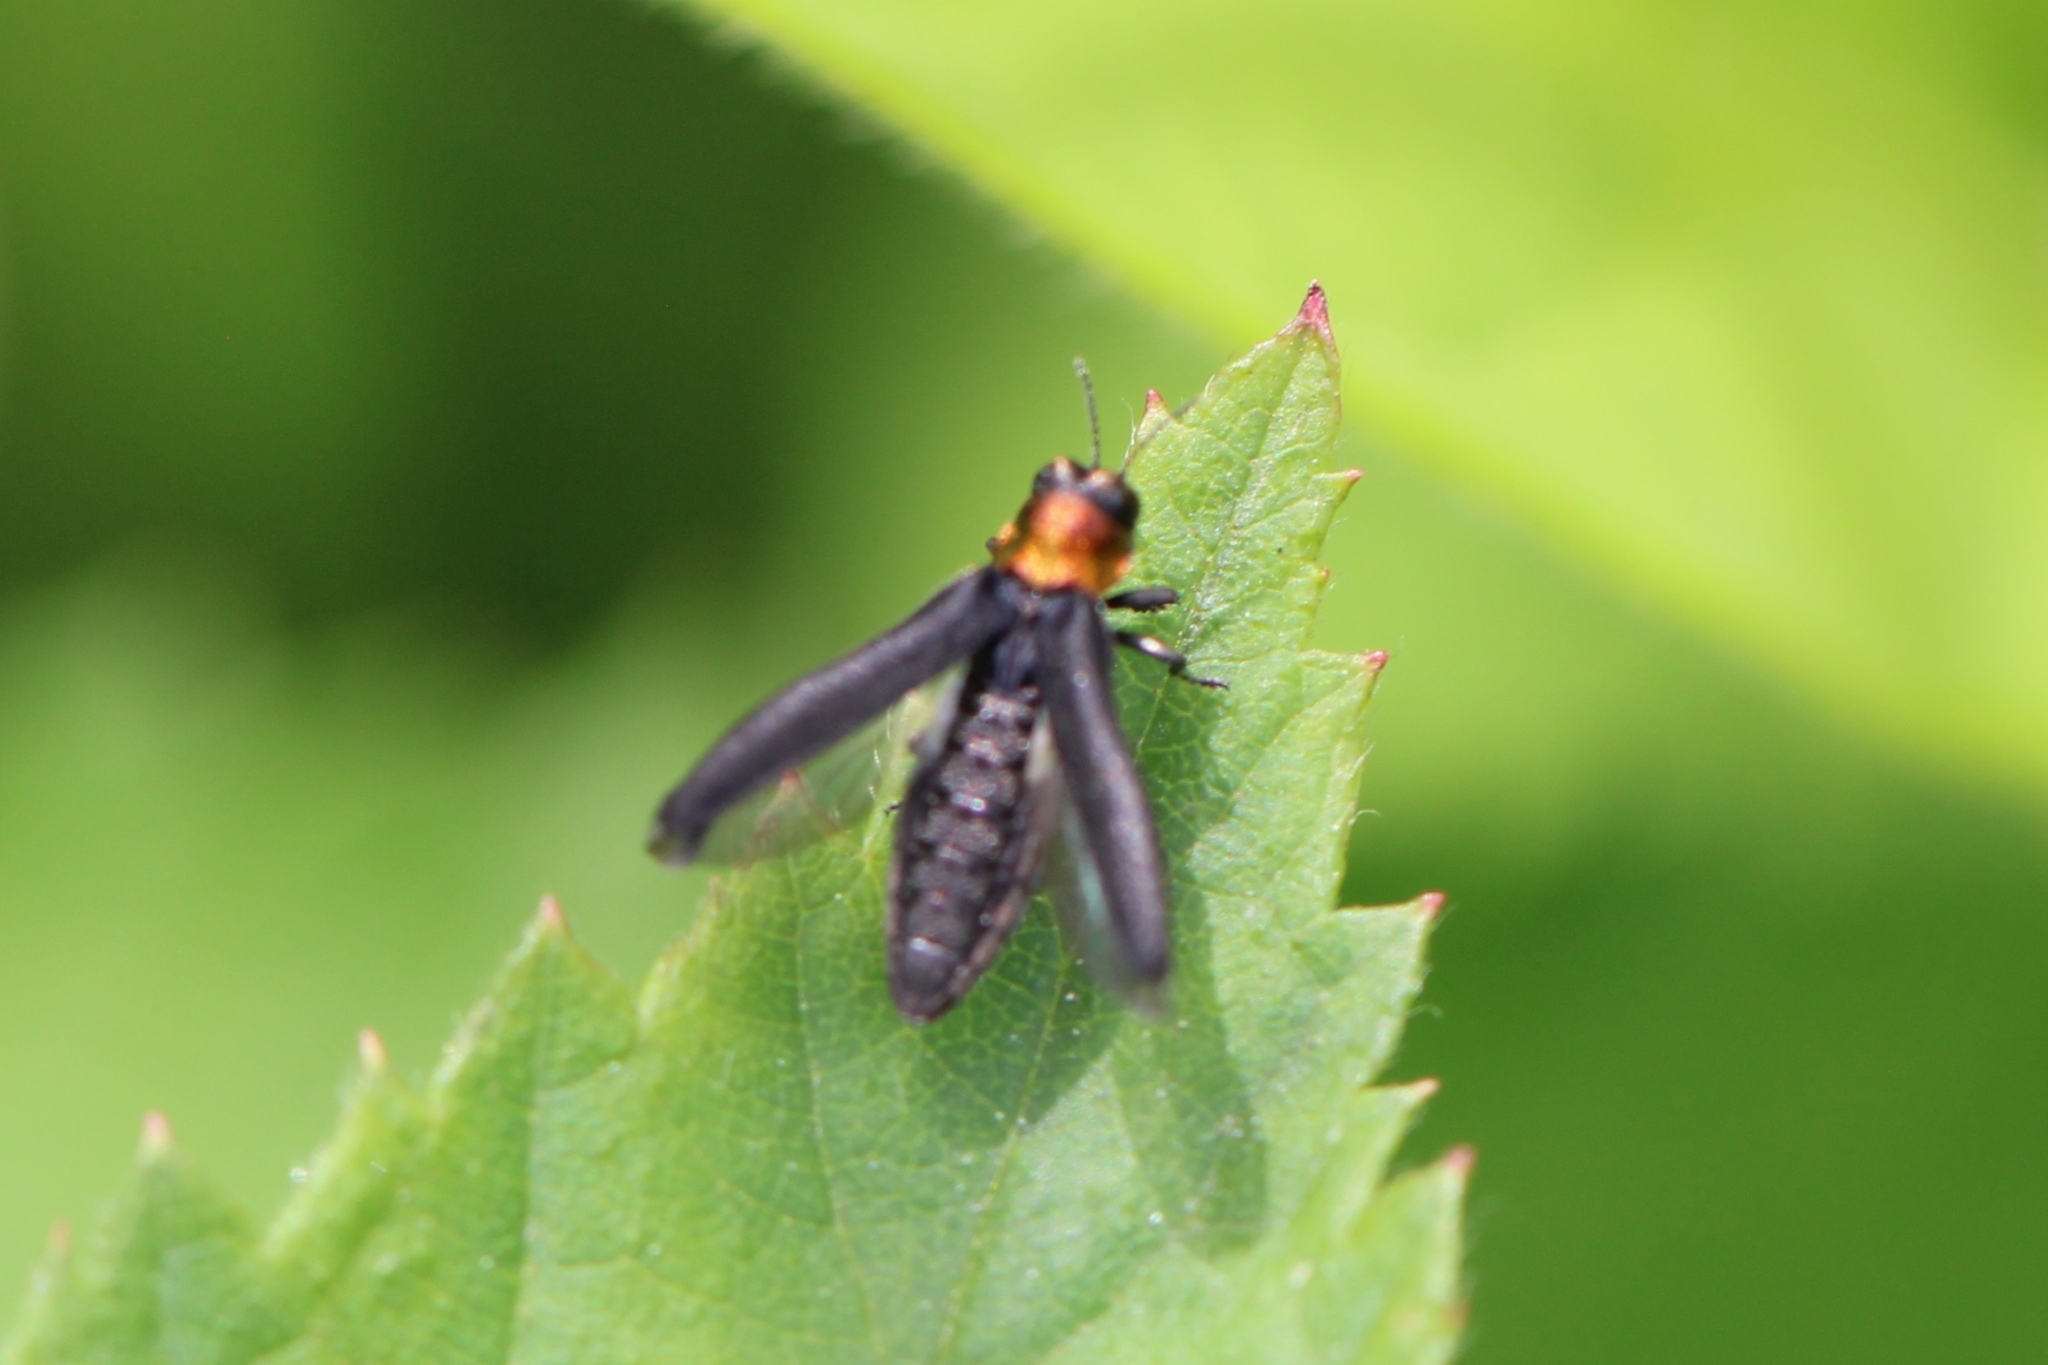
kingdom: Animalia
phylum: Arthropoda
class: Insecta
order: Coleoptera
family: Buprestidae
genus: Agrilus
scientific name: Agrilus ruficollis
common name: Red-necked cane borer beetle
